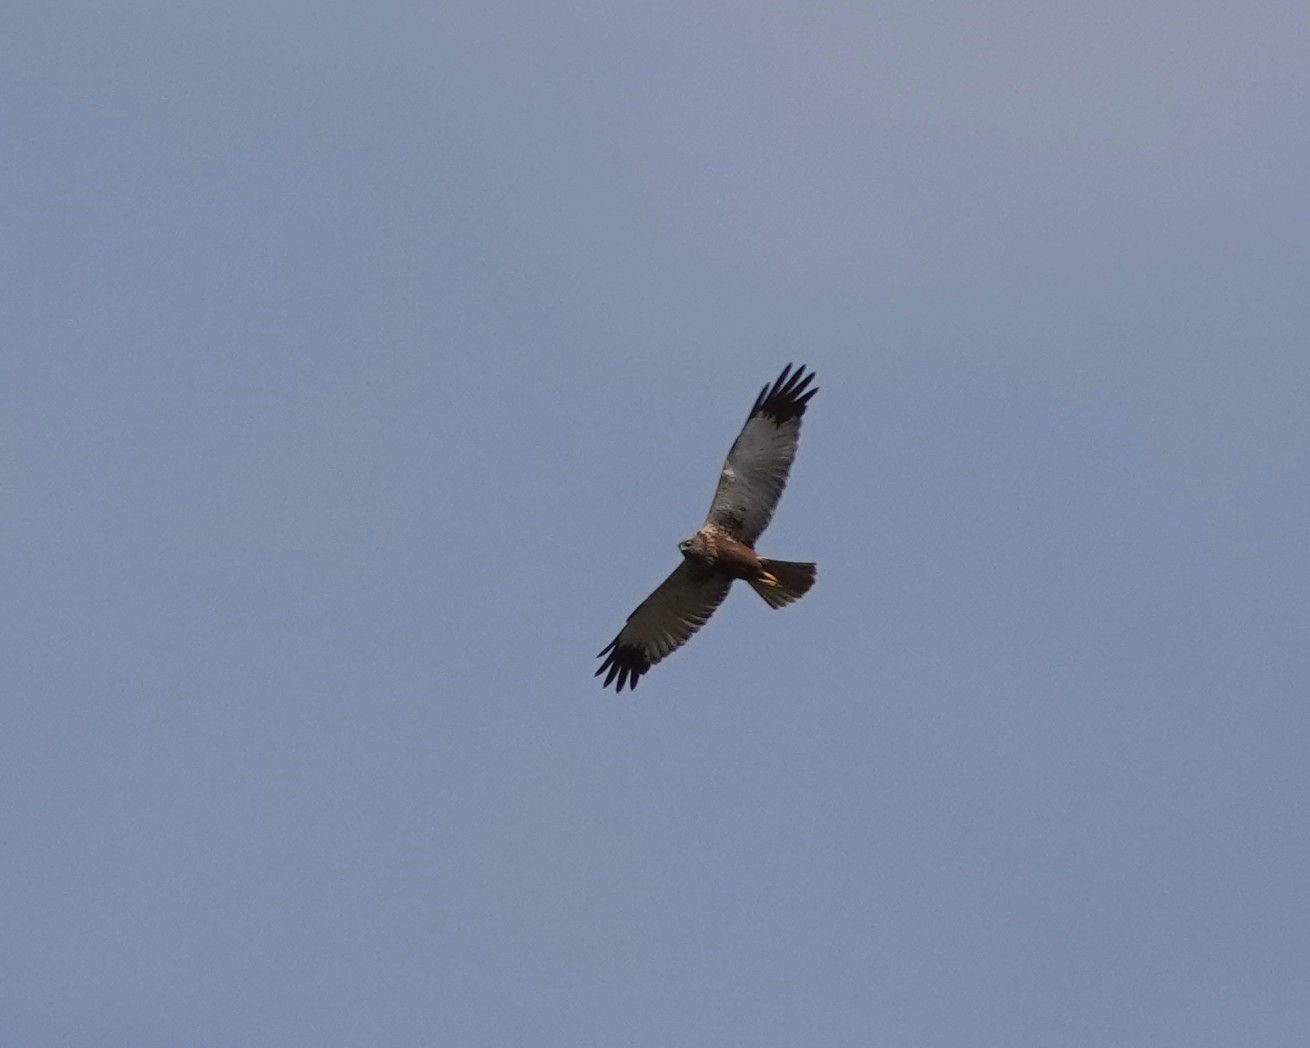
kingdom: Animalia
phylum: Chordata
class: Aves
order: Accipitriformes
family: Accipitridae
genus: Circus
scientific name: Circus aeruginosus
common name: Western marsh harrier
